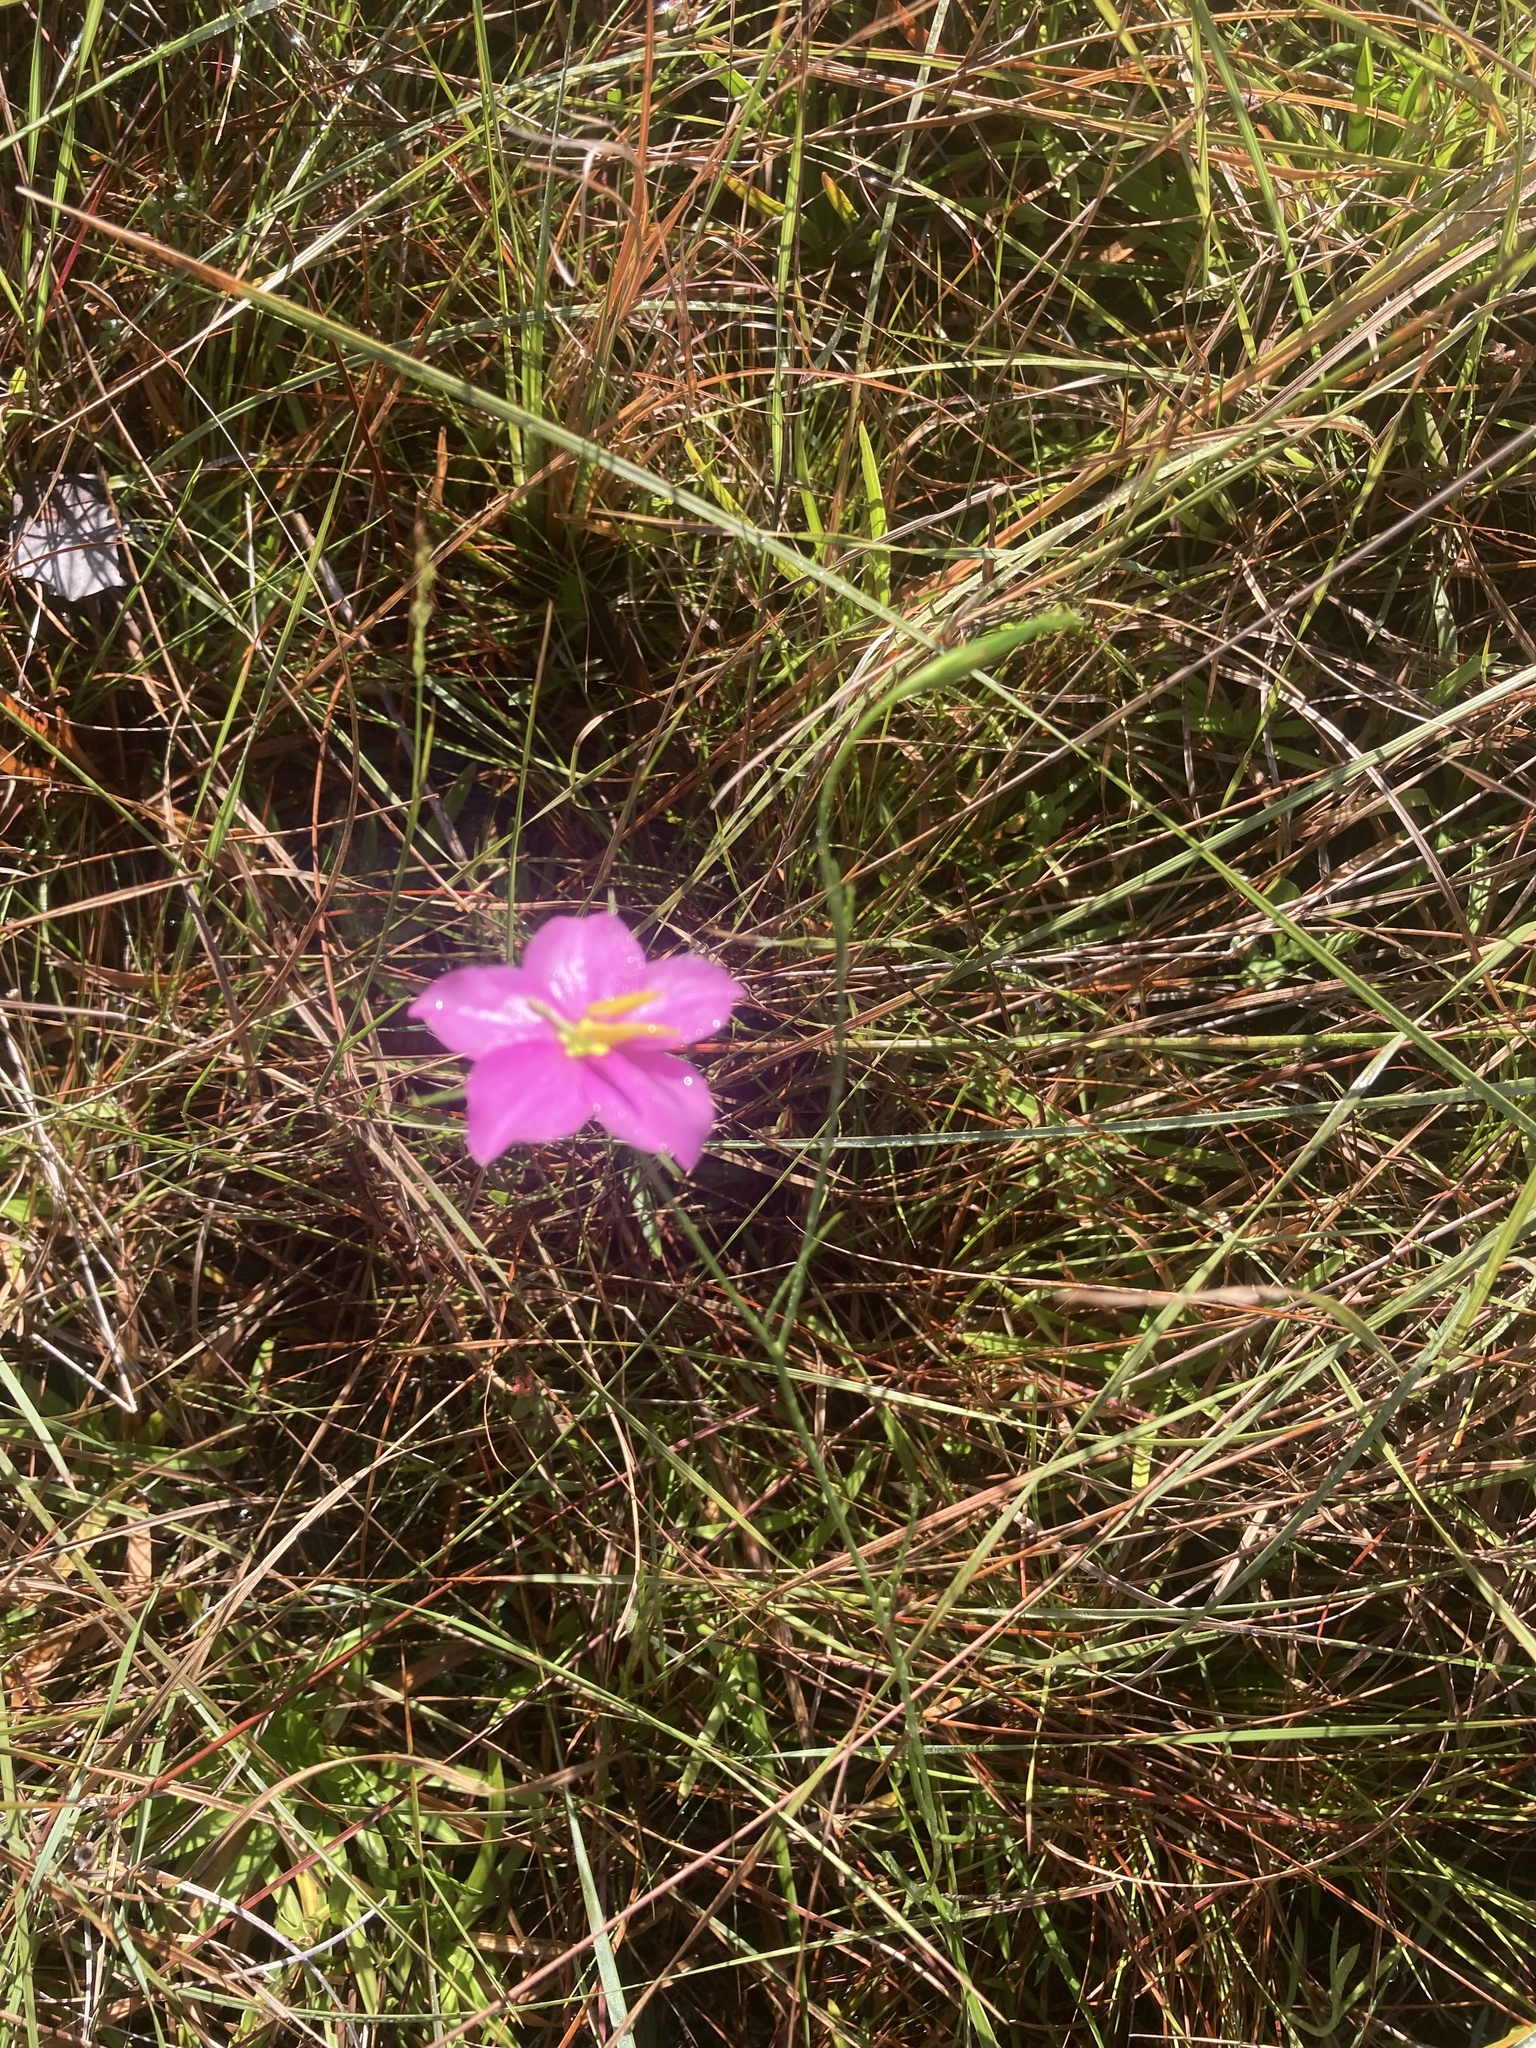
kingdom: Plantae
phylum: Tracheophyta
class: Magnoliopsida
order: Gentianales
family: Gentianaceae
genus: Sabatia
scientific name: Sabatia grandiflora
